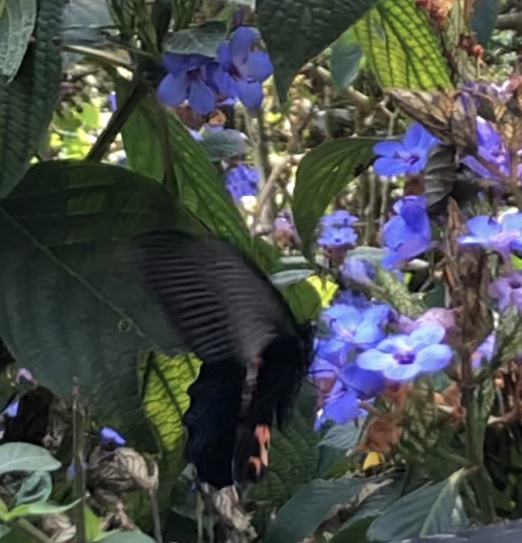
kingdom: Animalia
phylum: Arthropoda
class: Insecta
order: Lepidoptera
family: Papilionidae
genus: Papilio
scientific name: Papilio protenor
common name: Spangle
